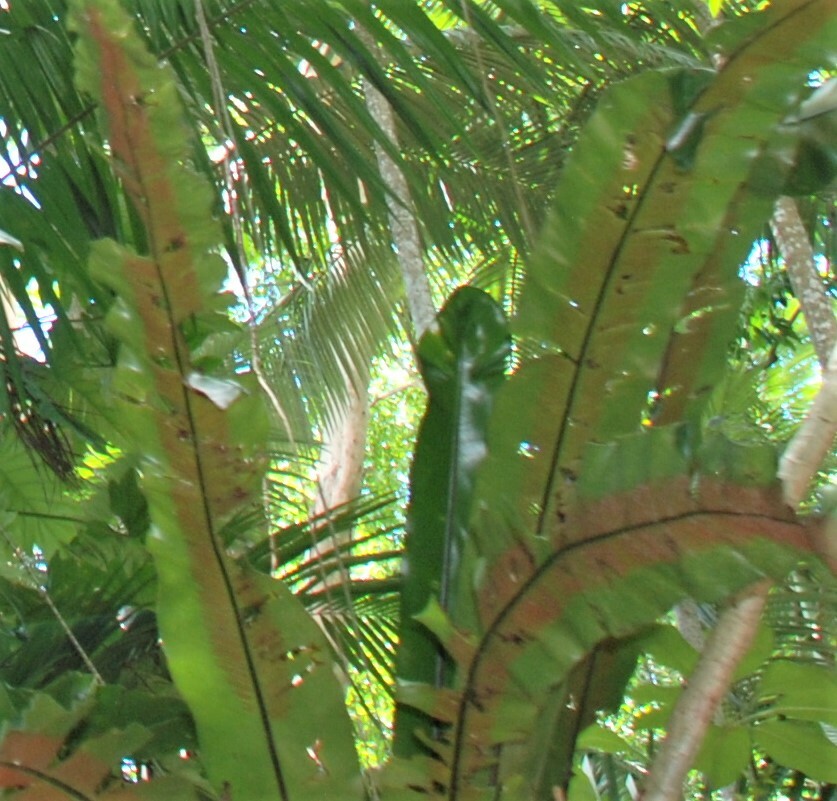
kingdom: Plantae
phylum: Tracheophyta
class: Polypodiopsida
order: Polypodiales
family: Aspleniaceae
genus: Asplenium
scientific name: Asplenium nidus
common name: Bird's-nest fern
